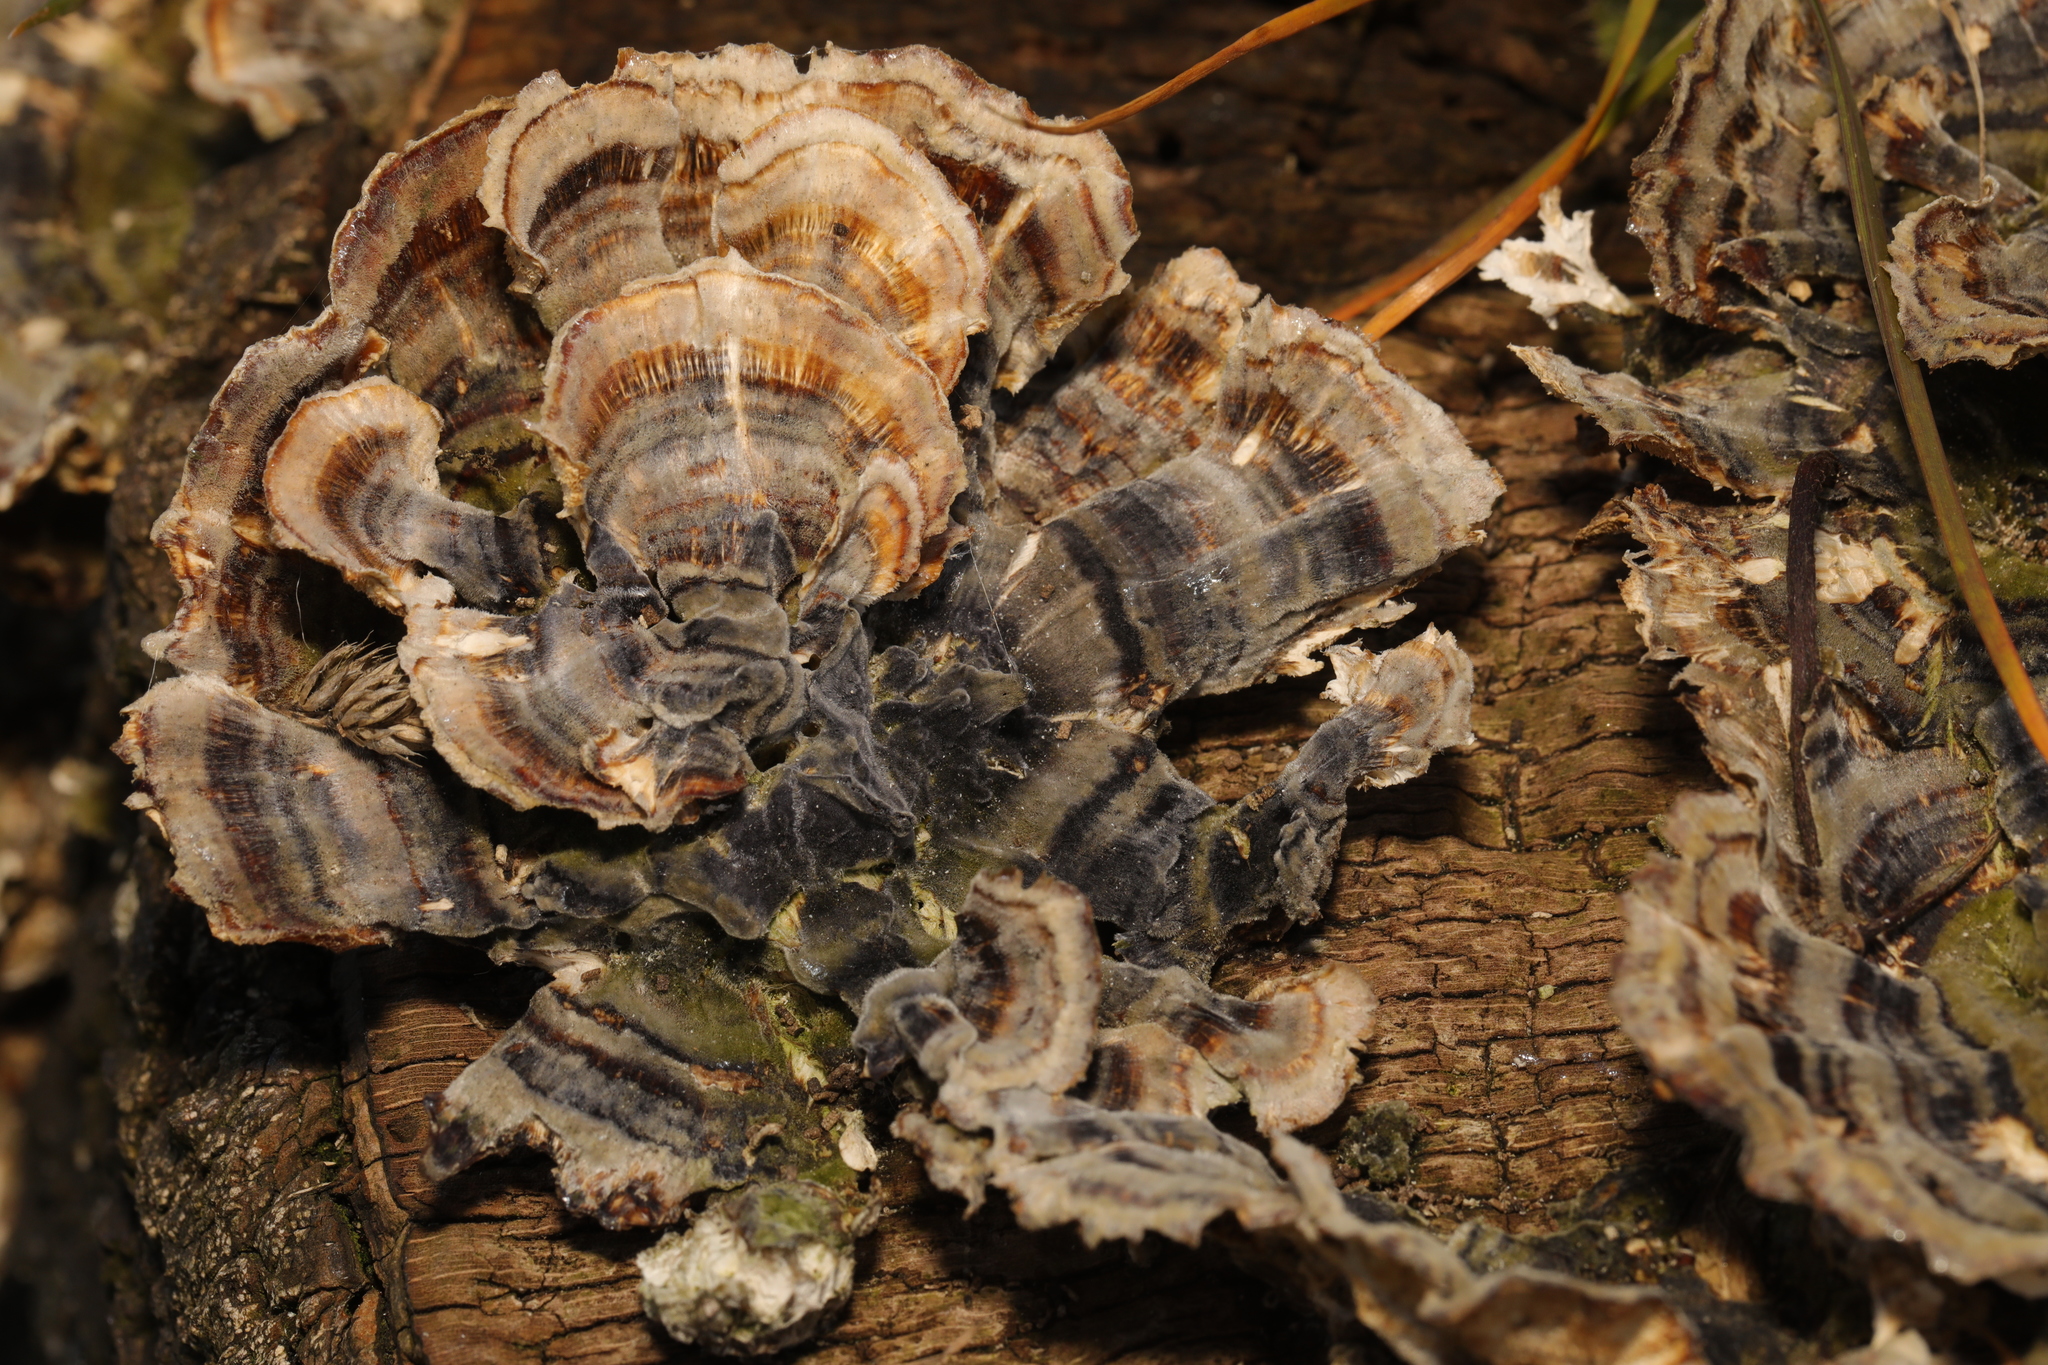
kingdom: Fungi
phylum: Basidiomycota
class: Agaricomycetes
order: Polyporales
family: Polyporaceae
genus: Trametes
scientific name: Trametes versicolor
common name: Turkeytail
